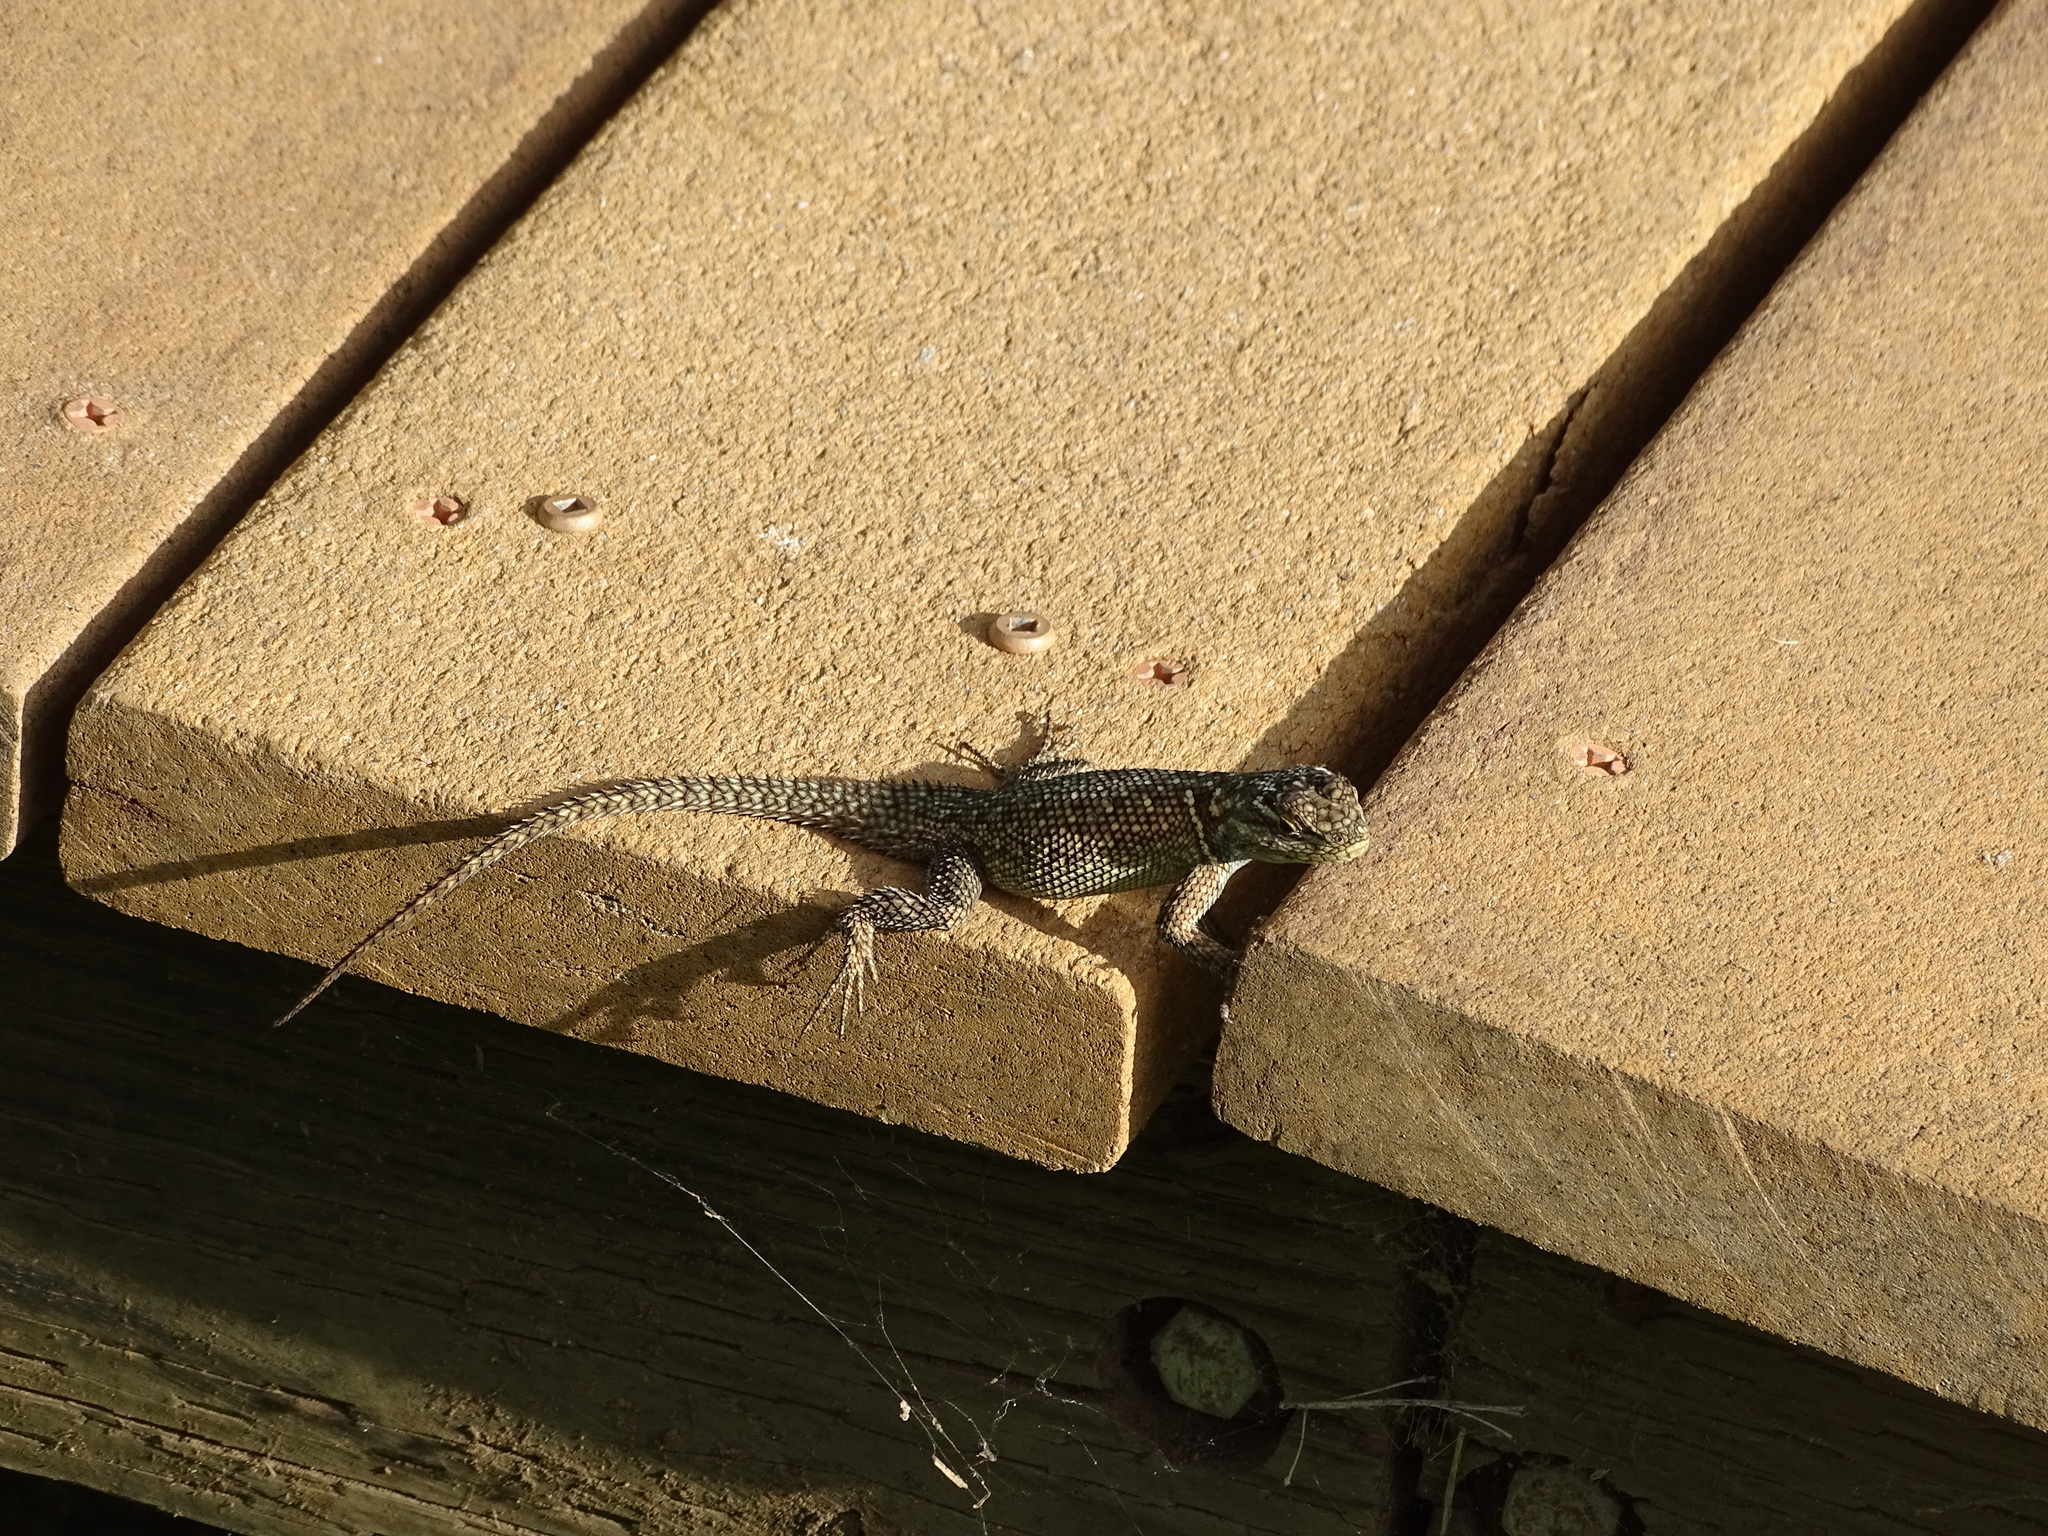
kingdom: Animalia
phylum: Chordata
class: Squamata
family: Phrynosomatidae
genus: Sceloporus
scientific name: Sceloporus jarrovii
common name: Yarrow's spiny lizard
